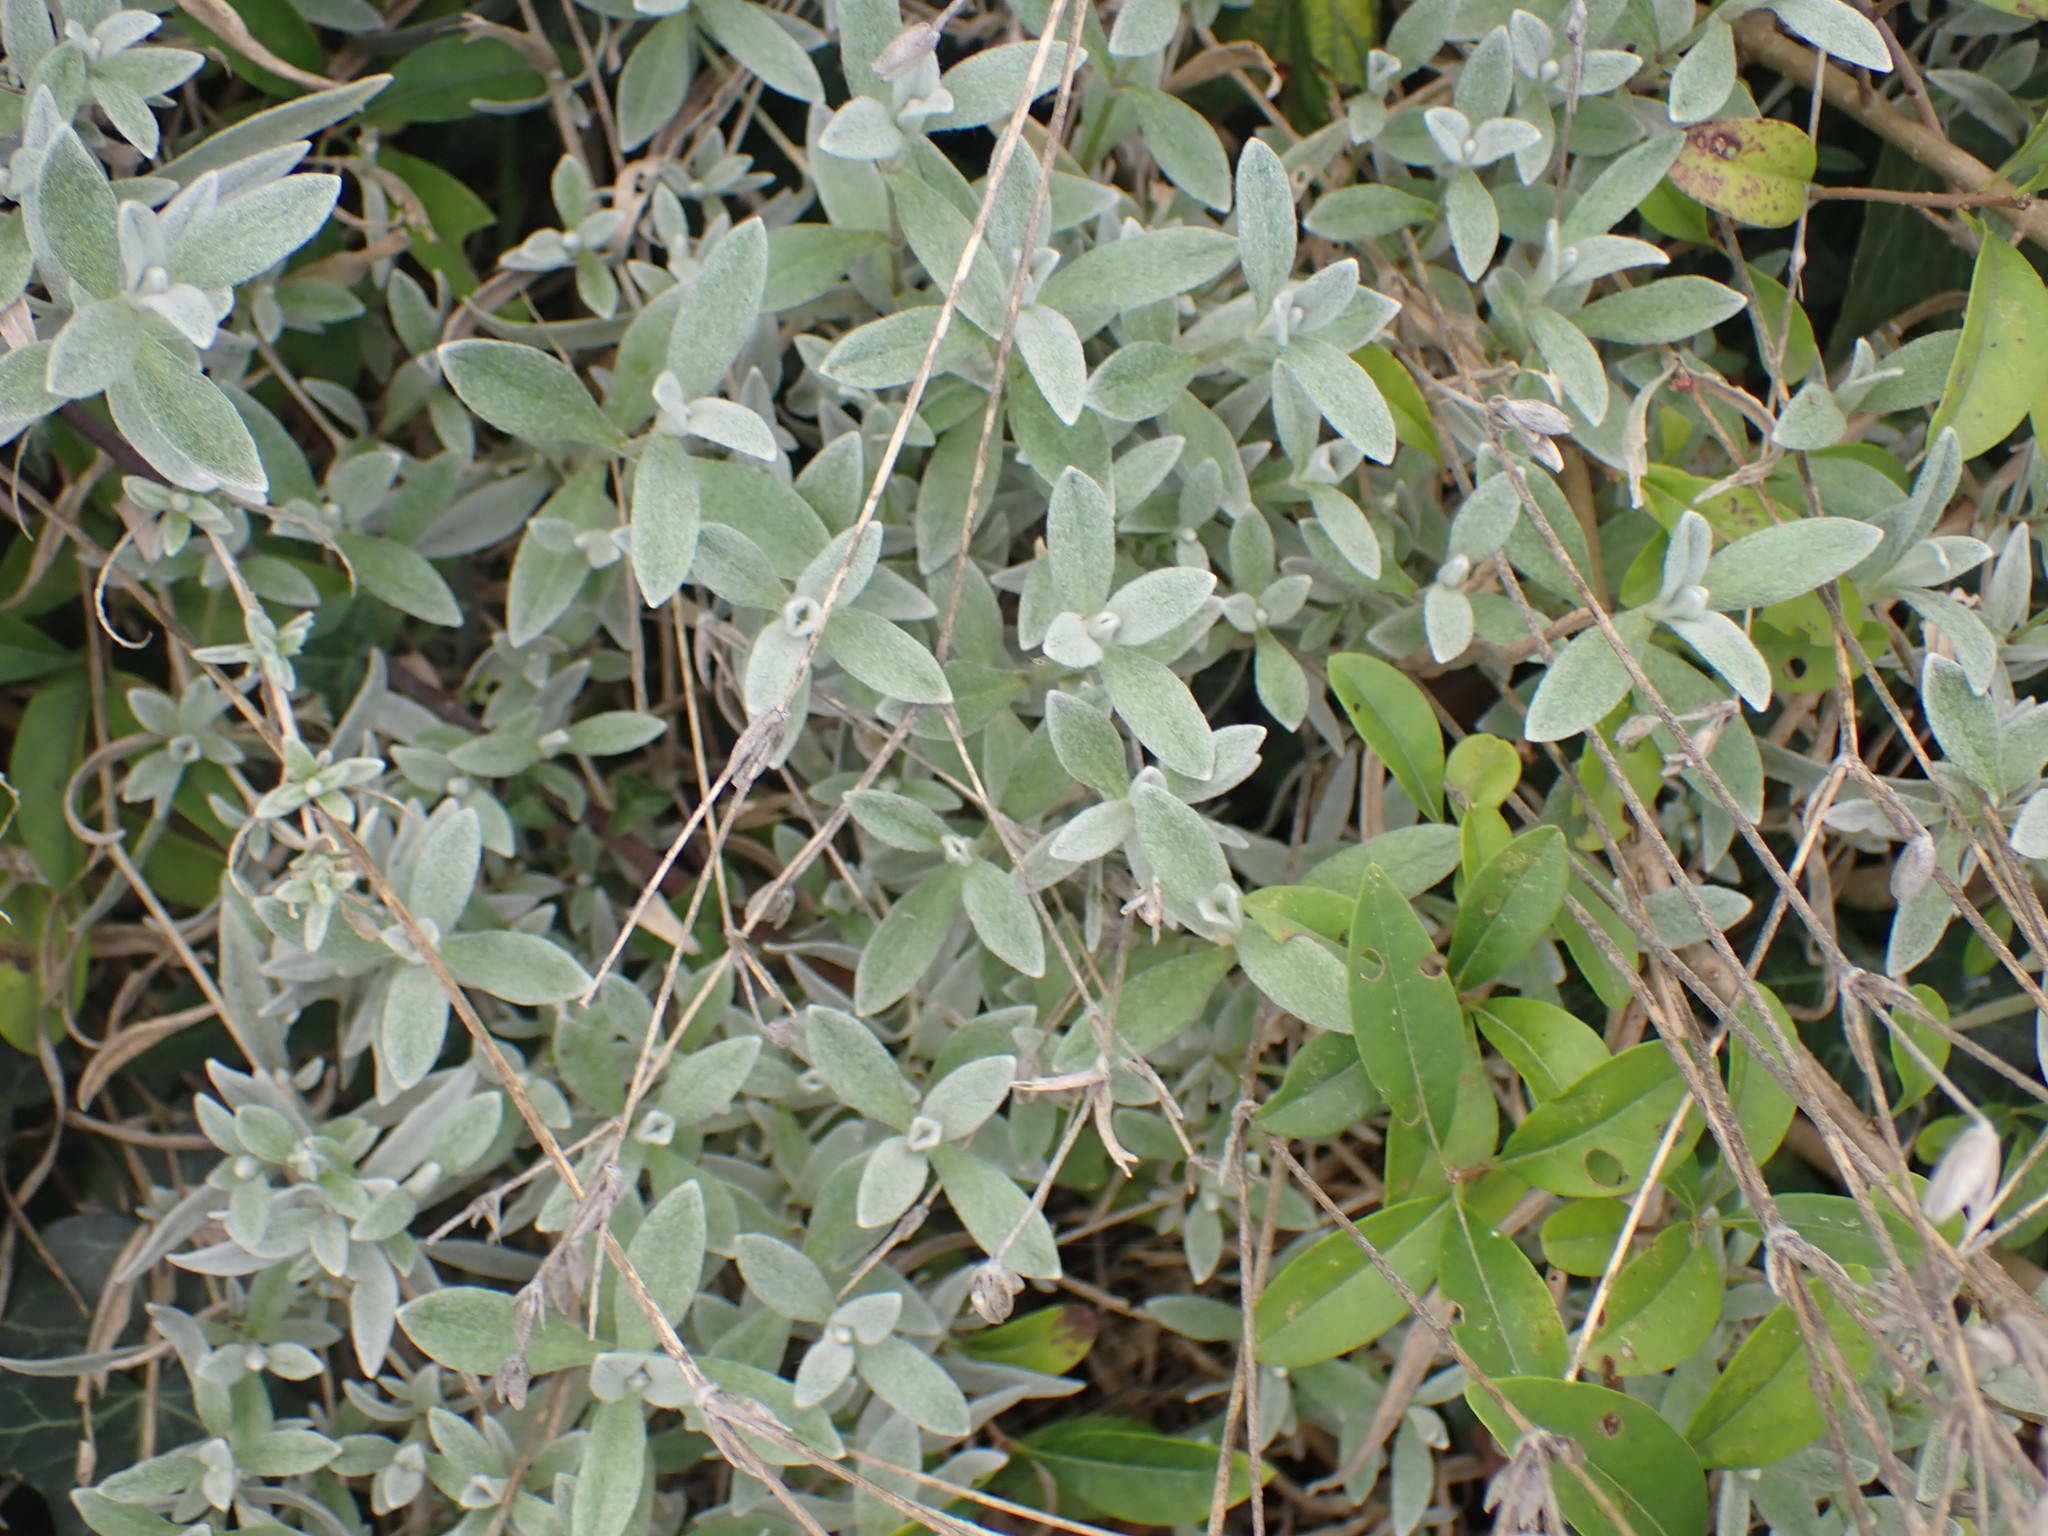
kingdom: Plantae
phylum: Tracheophyta
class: Magnoliopsida
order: Caryophyllales
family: Caryophyllaceae
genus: Cerastium
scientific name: Cerastium tomentosum
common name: Snow-in-summer
